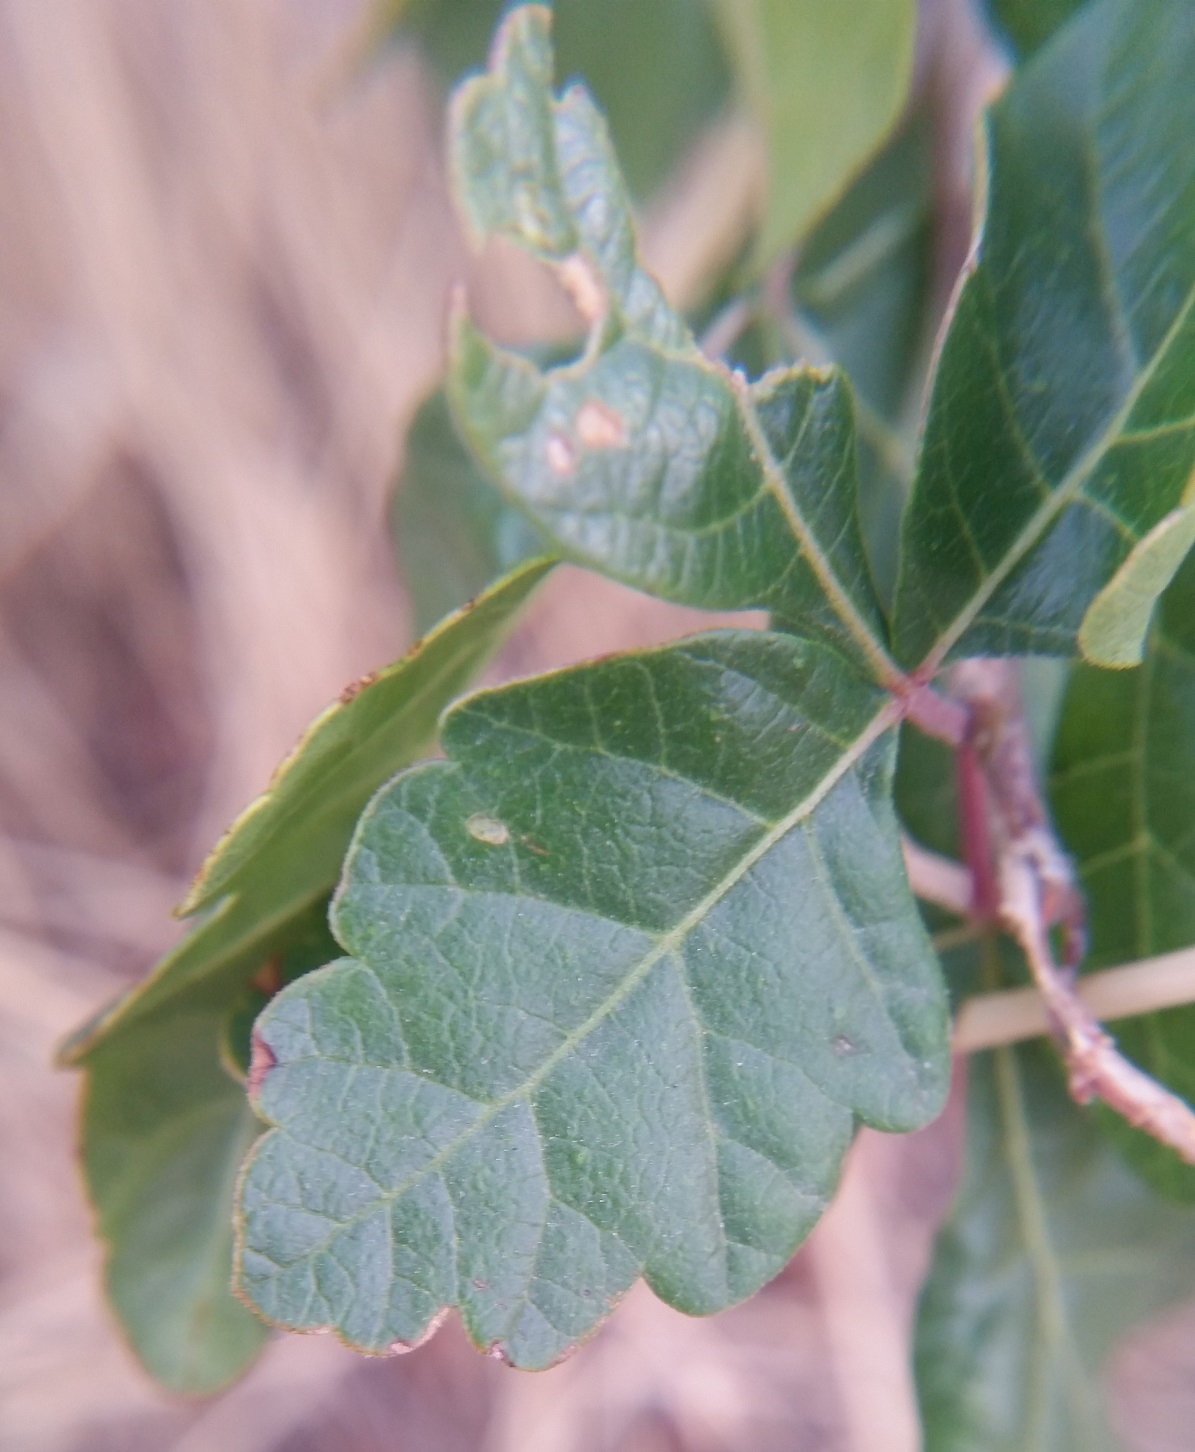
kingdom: Plantae
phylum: Tracheophyta
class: Magnoliopsida
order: Sapindales
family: Anacardiaceae
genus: Rhus
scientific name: Rhus aromatica
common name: Aromatic sumac
